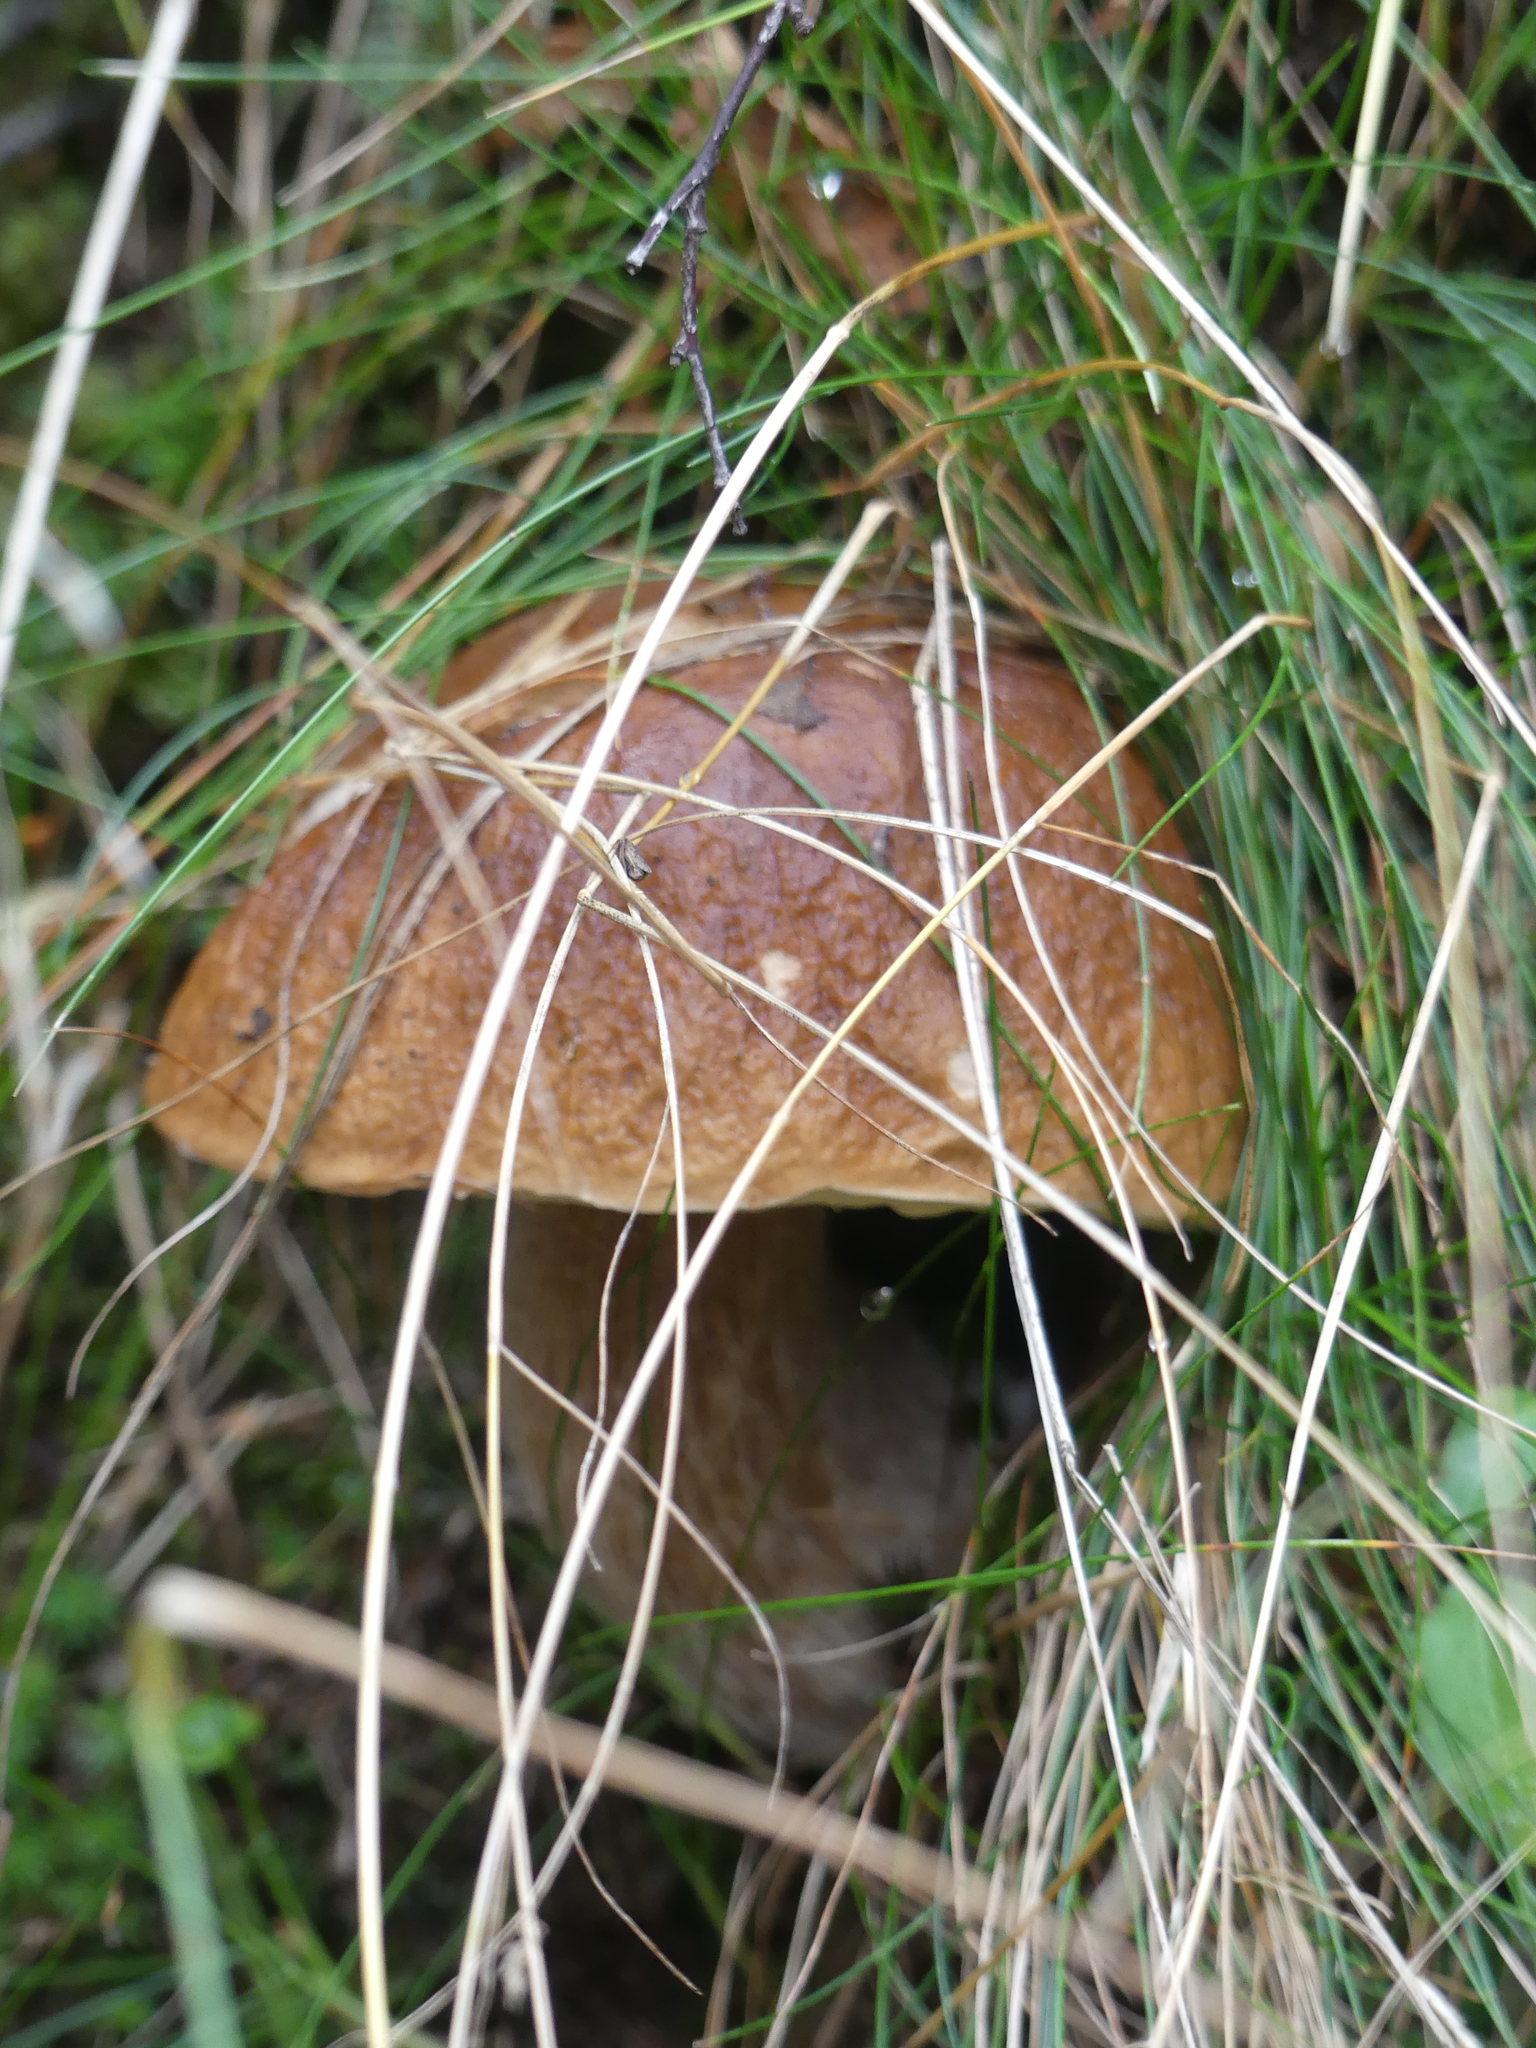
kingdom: Fungi
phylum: Basidiomycota
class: Agaricomycetes
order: Boletales
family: Boletaceae
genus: Boletus
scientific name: Boletus edulis
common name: Cep
